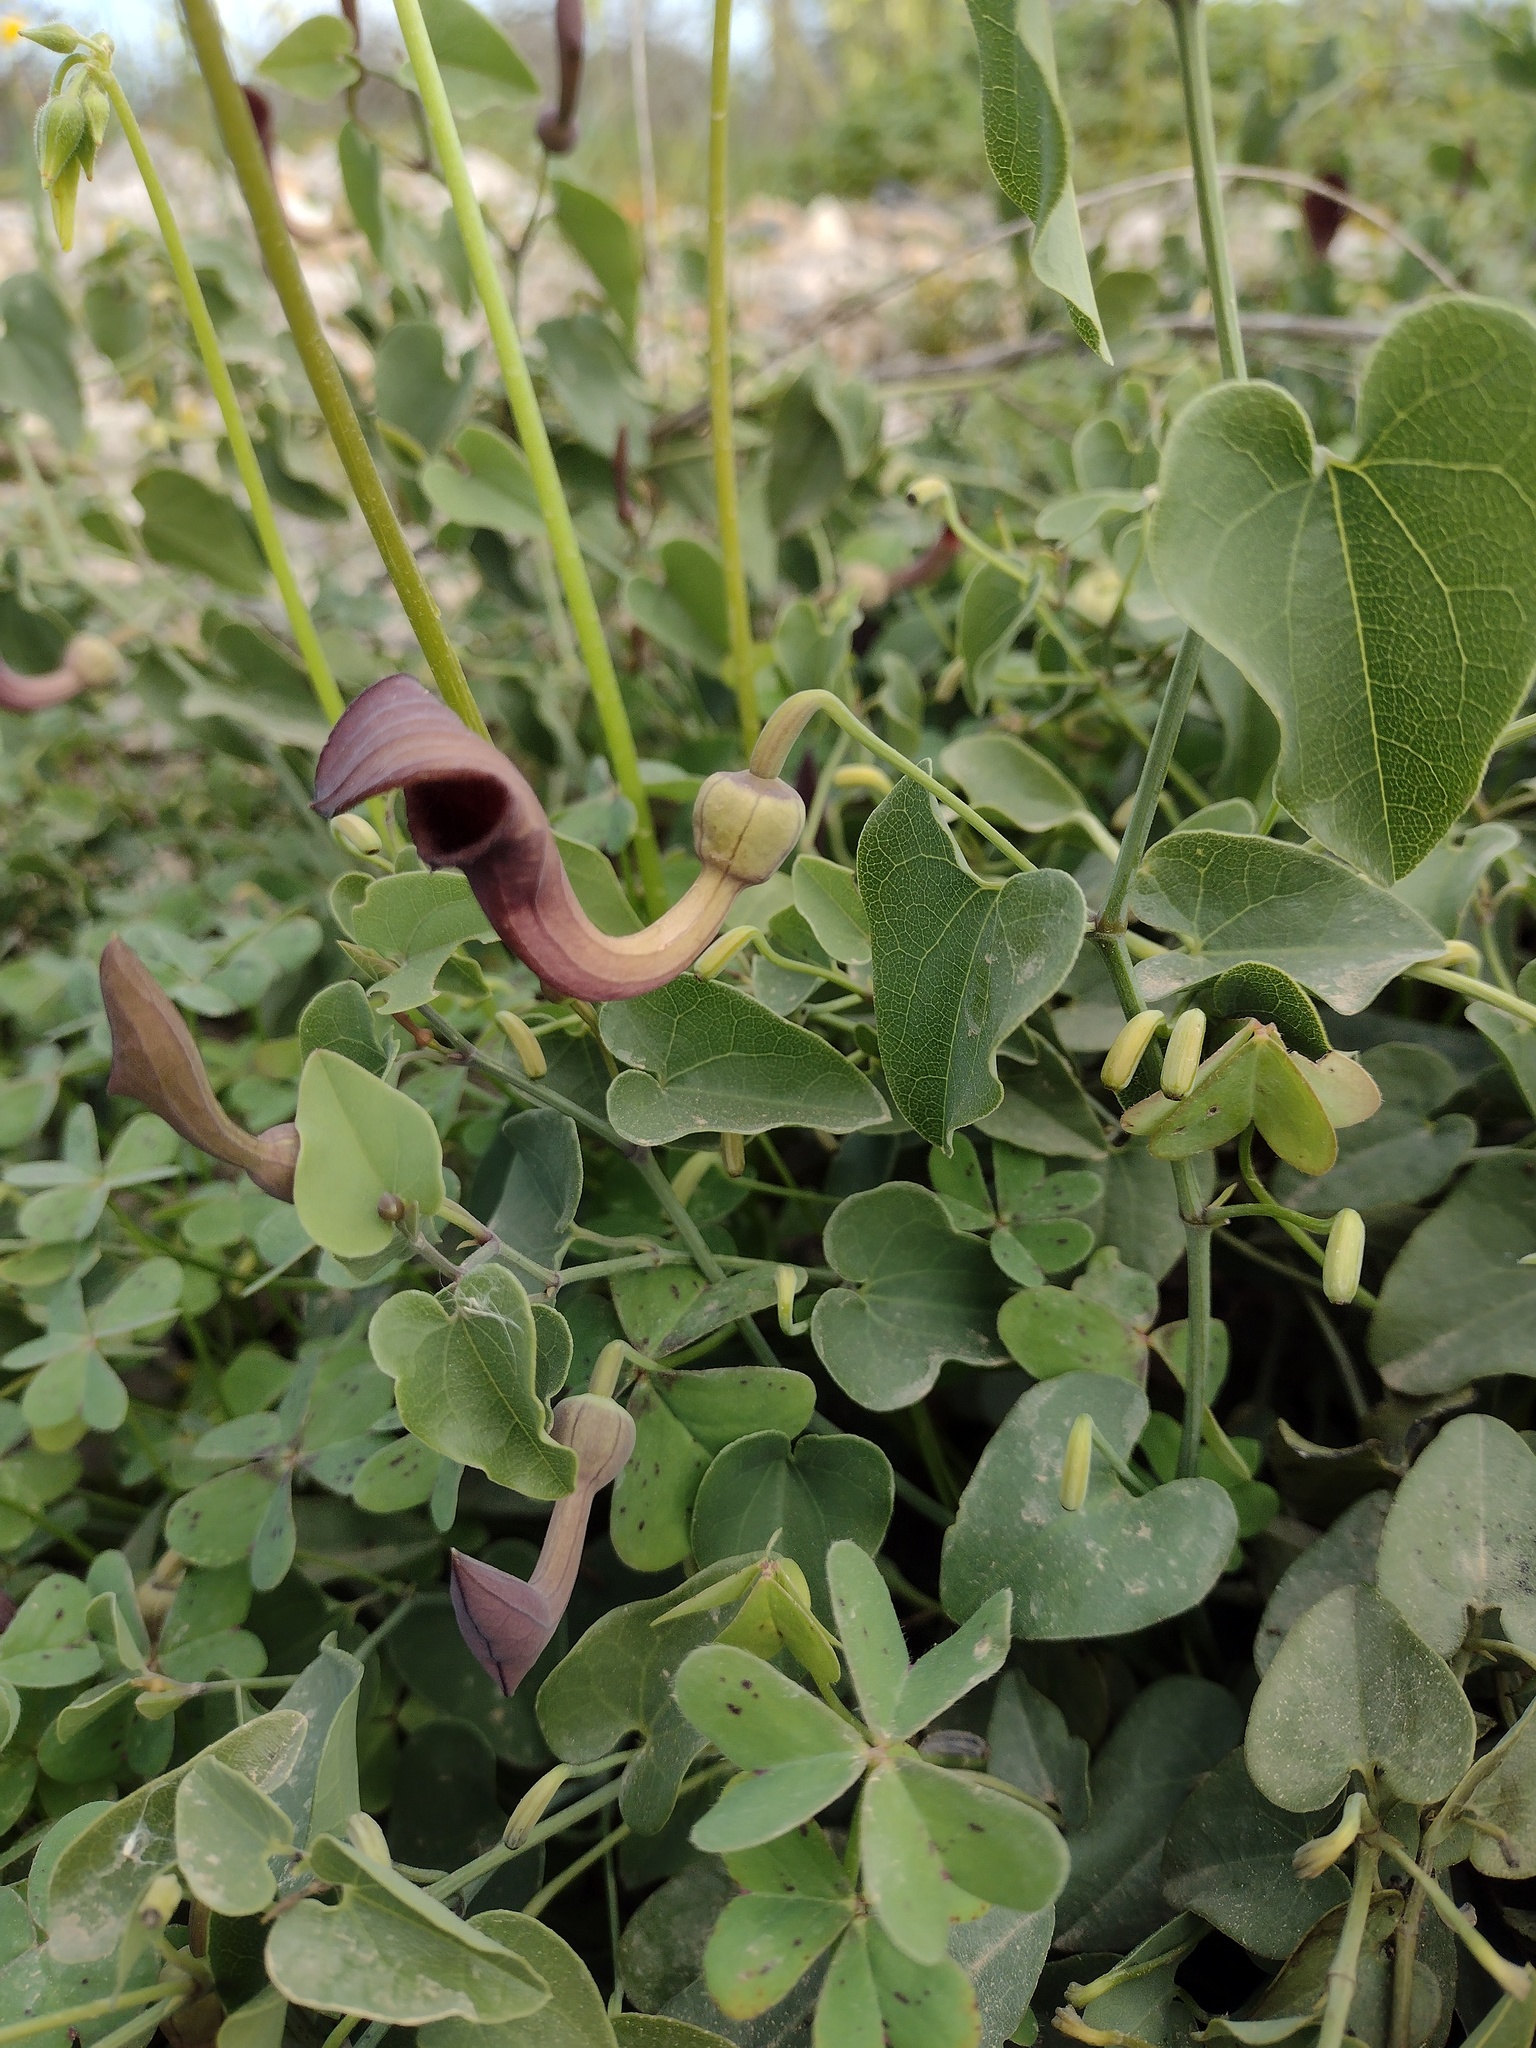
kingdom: Plantae
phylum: Tracheophyta
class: Magnoliopsida
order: Piperales
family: Aristolochiaceae
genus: Aristolochia
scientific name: Aristolochia baetica
